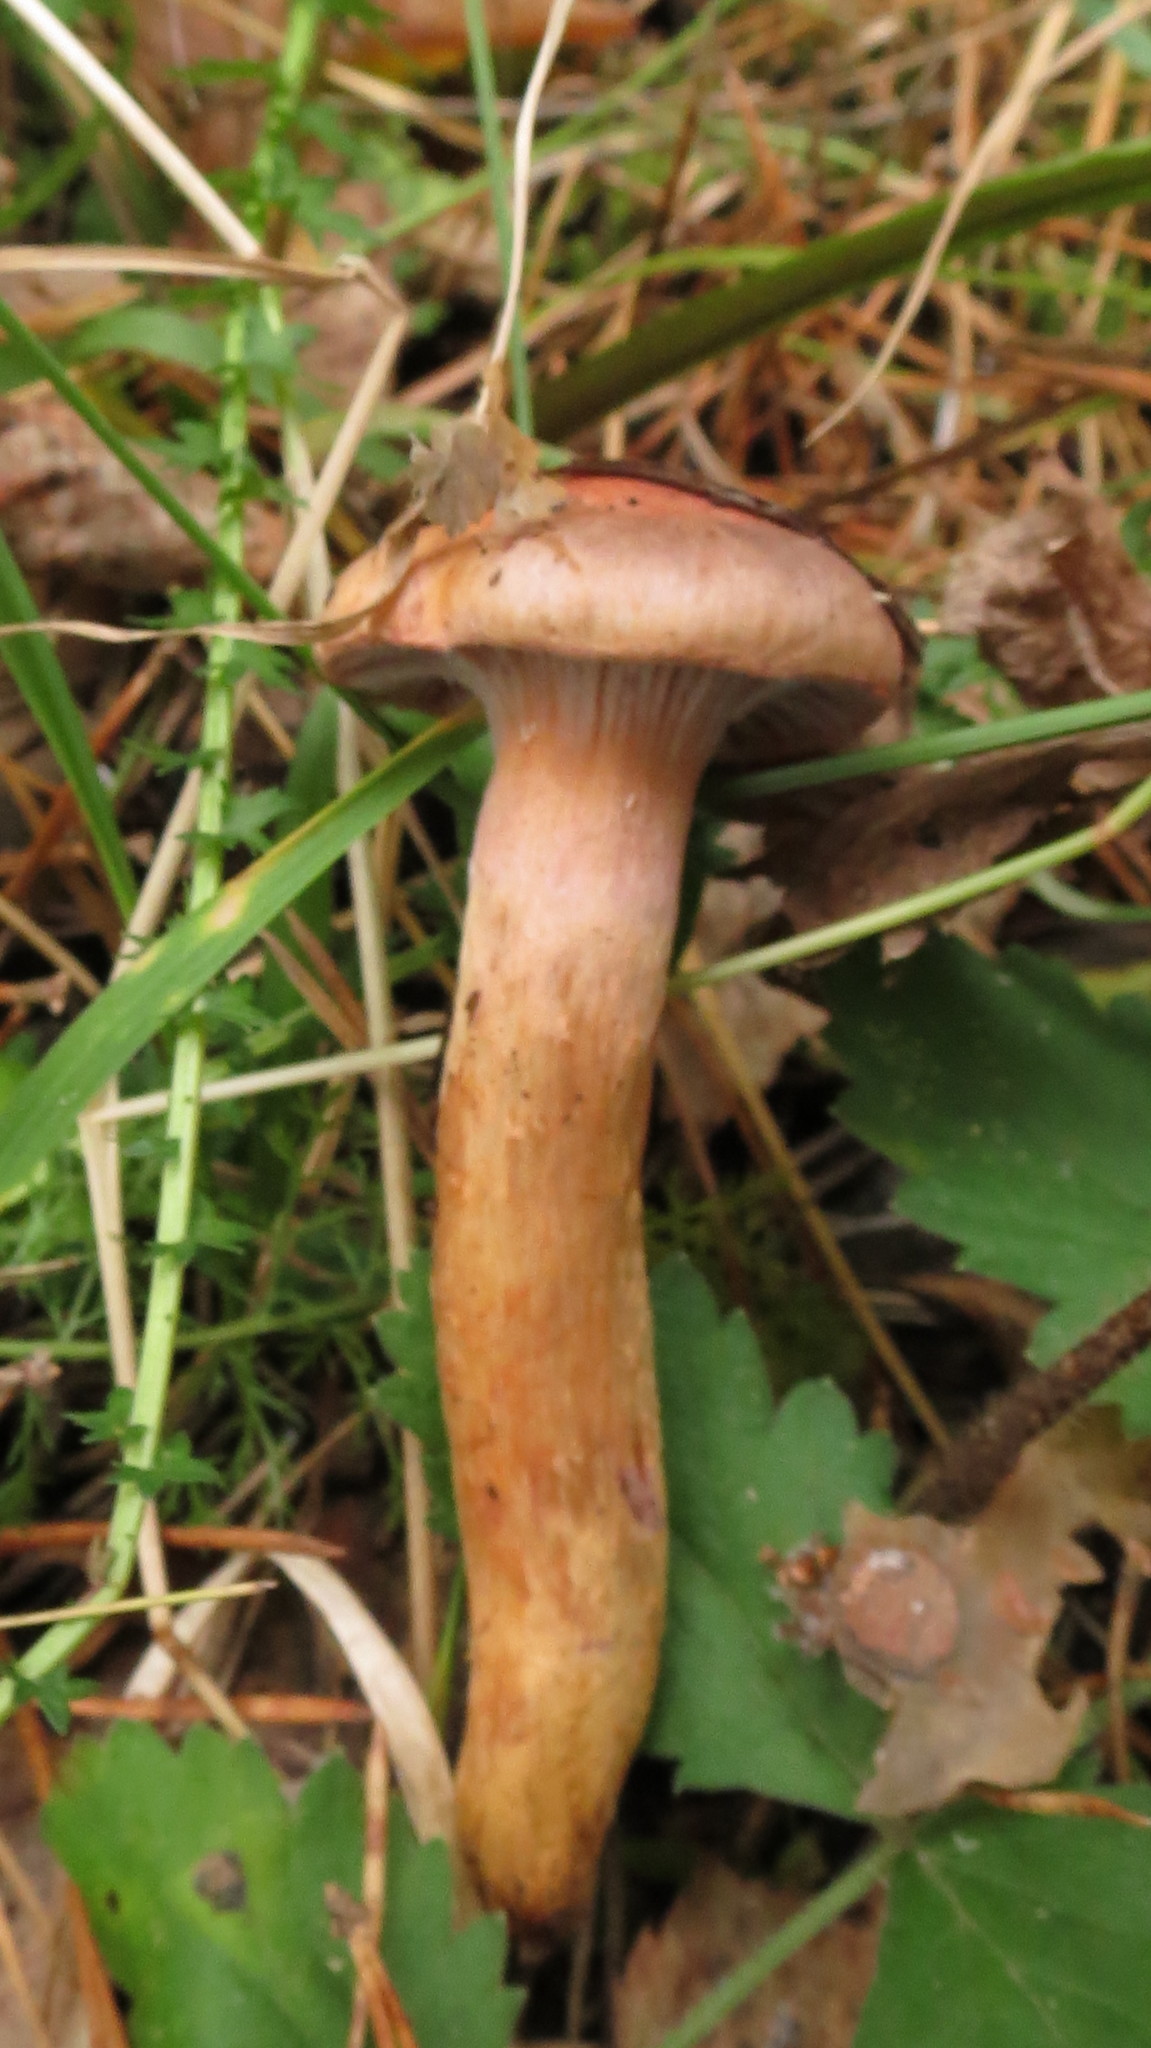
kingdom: Fungi
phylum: Basidiomycota
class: Agaricomycetes
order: Boletales
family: Gomphidiaceae
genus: Chroogomphus
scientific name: Chroogomphus rutilus
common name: Copper spike
